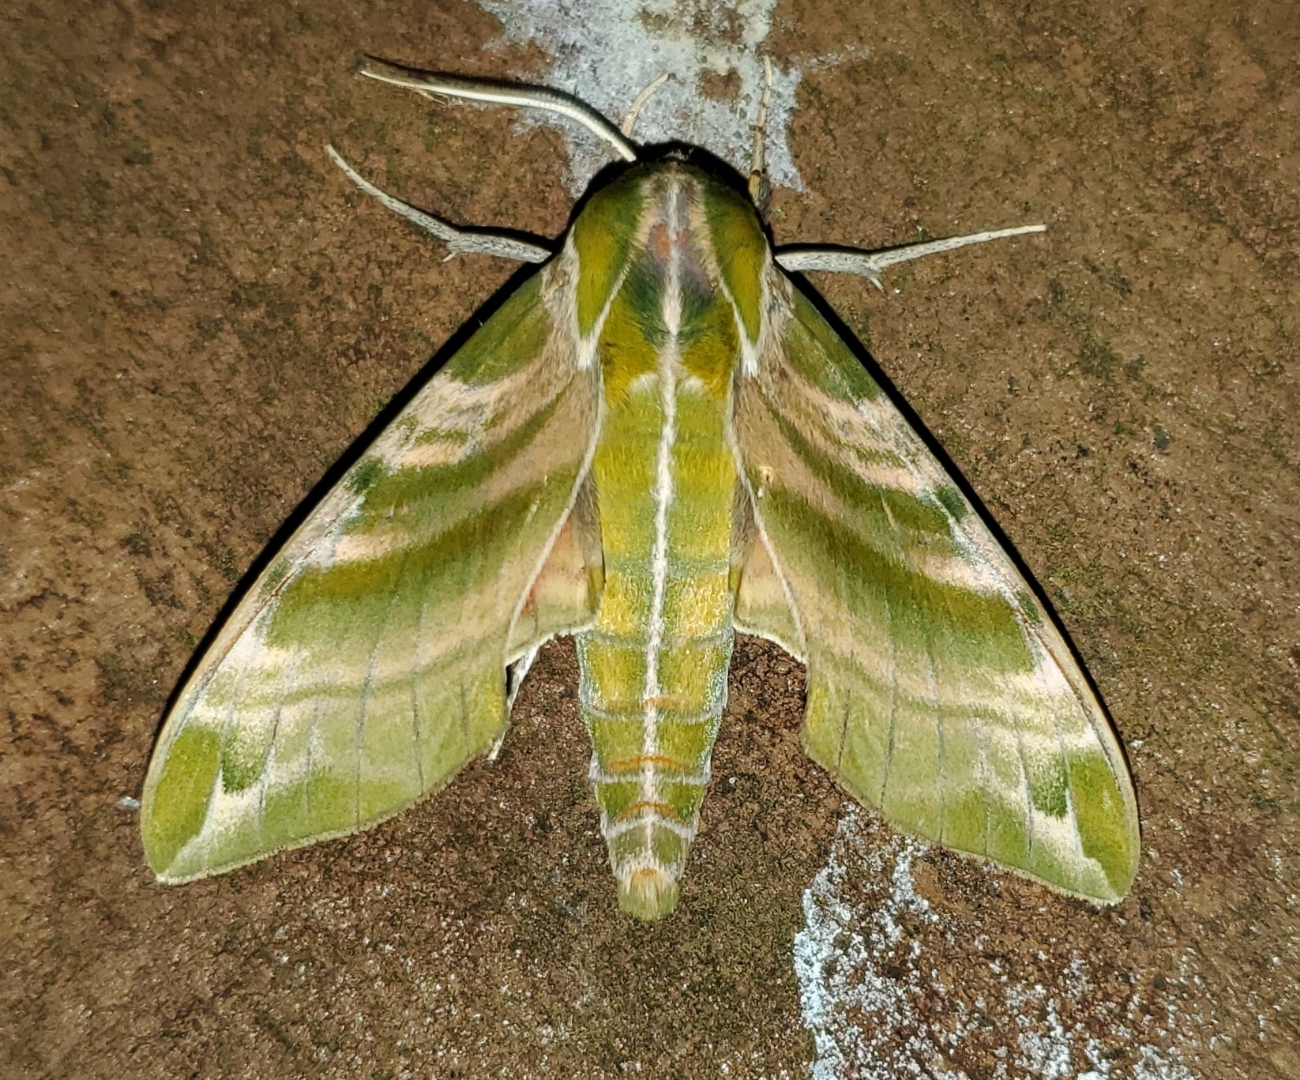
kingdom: Animalia
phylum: Arthropoda
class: Insecta
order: Lepidoptera
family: Sphingidae
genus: Darapsa
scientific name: Darapsa versicolor
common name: Hydrangea sphinx
